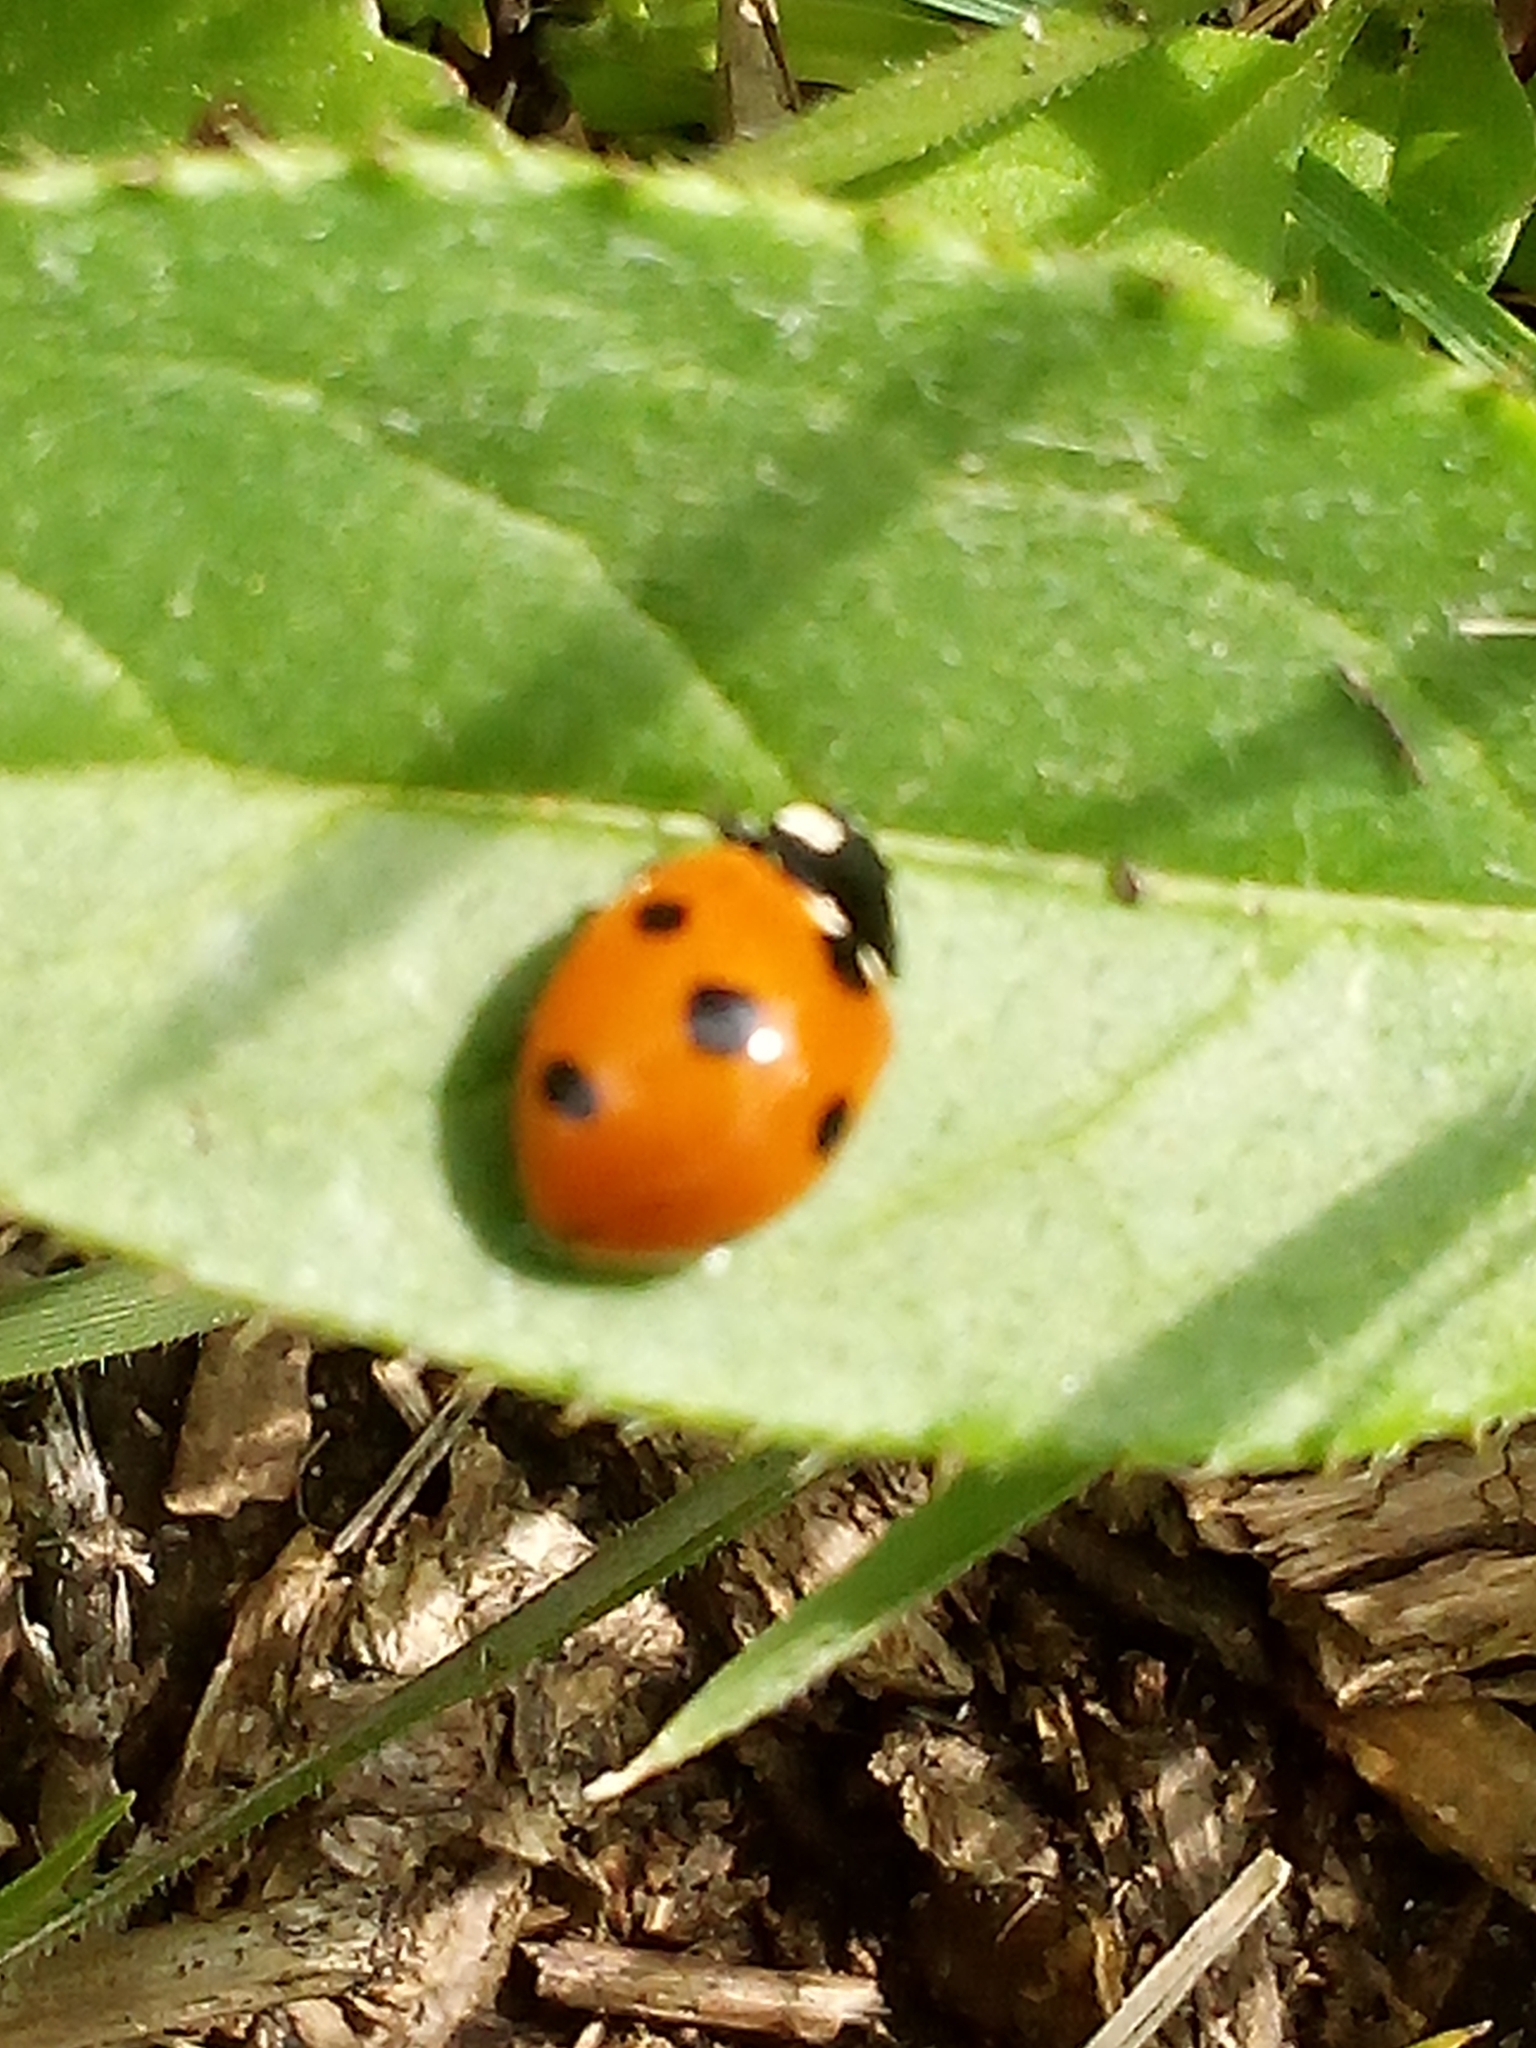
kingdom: Animalia
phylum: Arthropoda
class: Insecta
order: Coleoptera
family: Coccinellidae
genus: Coccinella
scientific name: Coccinella septempunctata
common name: Sevenspotted lady beetle
